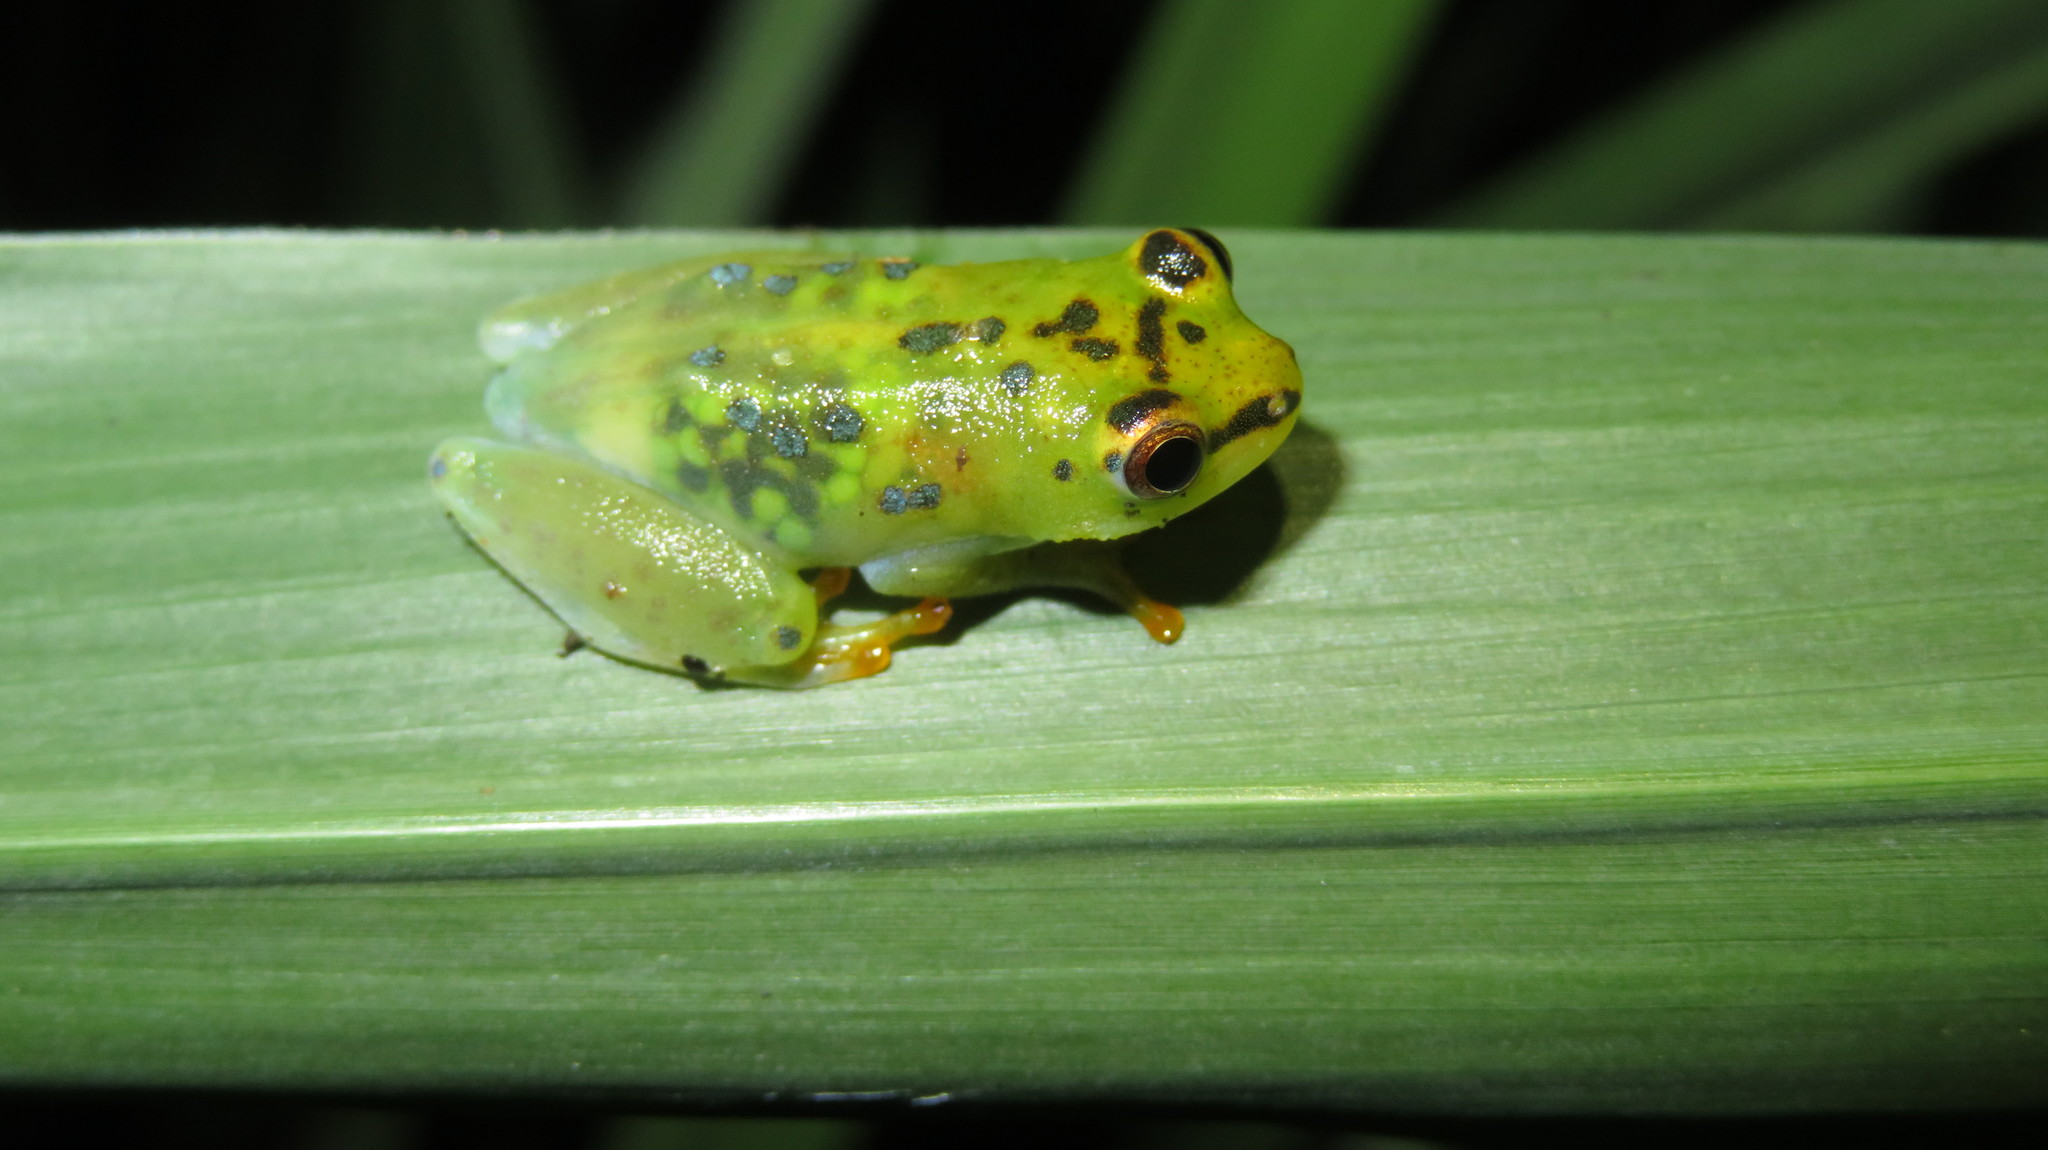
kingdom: Animalia
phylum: Chordata
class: Amphibia
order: Anura
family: Hyperoliidae
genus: Hyperolius
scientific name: Hyperolius pusillus
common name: Water lily reed frog
